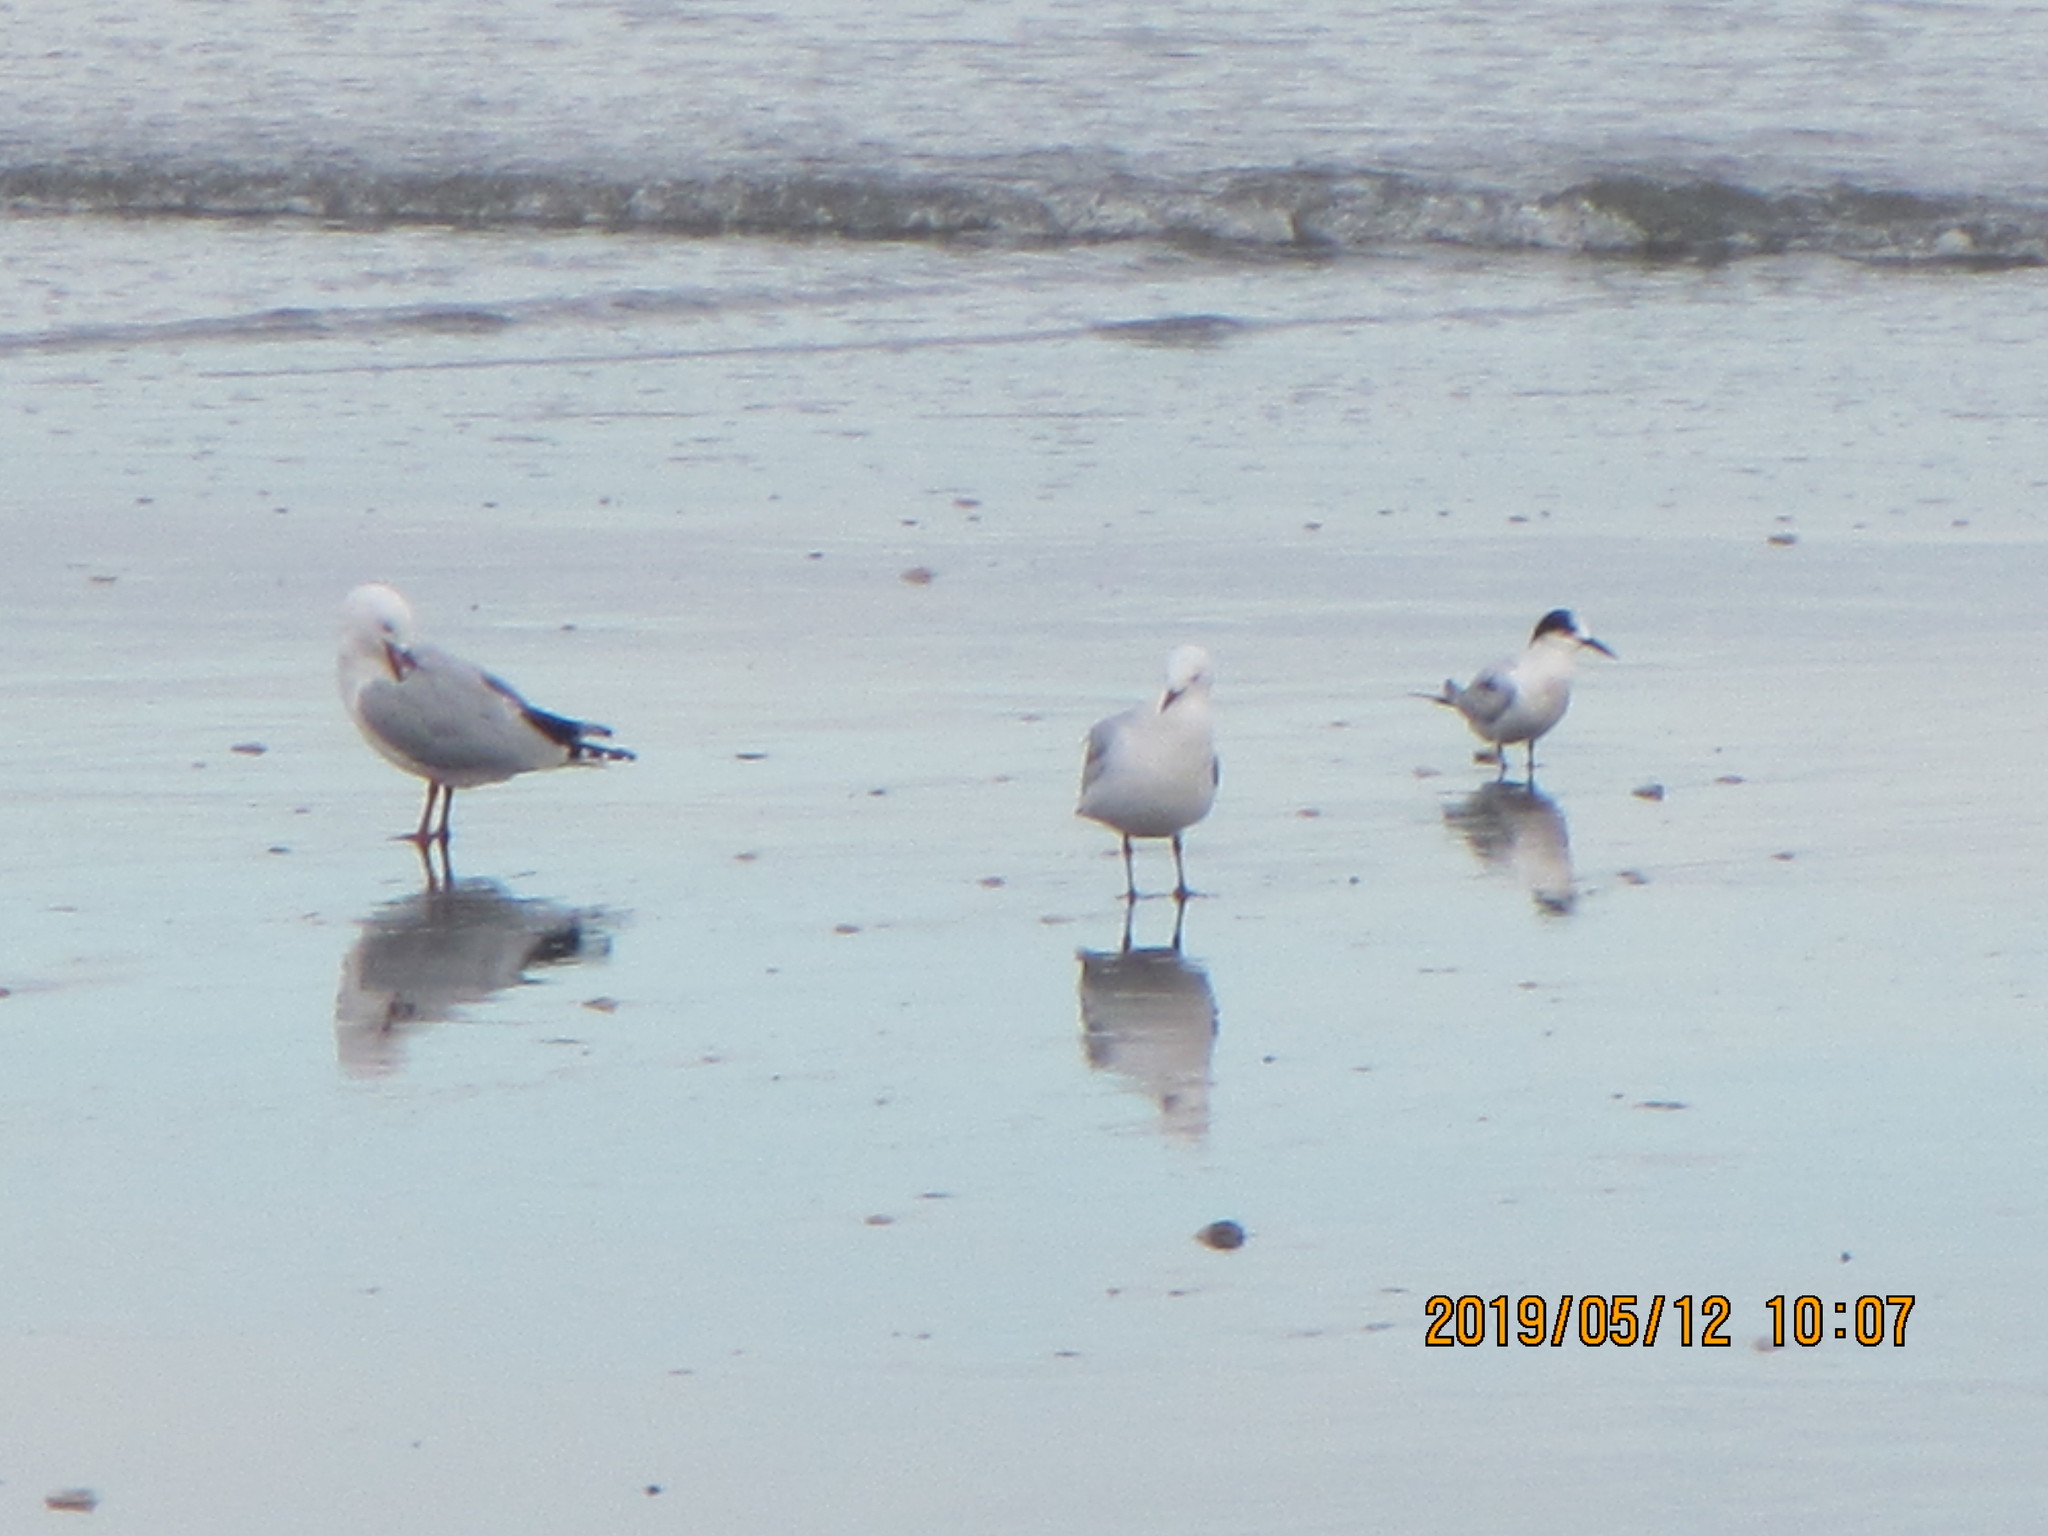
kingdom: Animalia
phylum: Chordata
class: Aves
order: Charadriiformes
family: Laridae
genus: Sterna
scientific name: Sterna striata
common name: White-fronted tern
